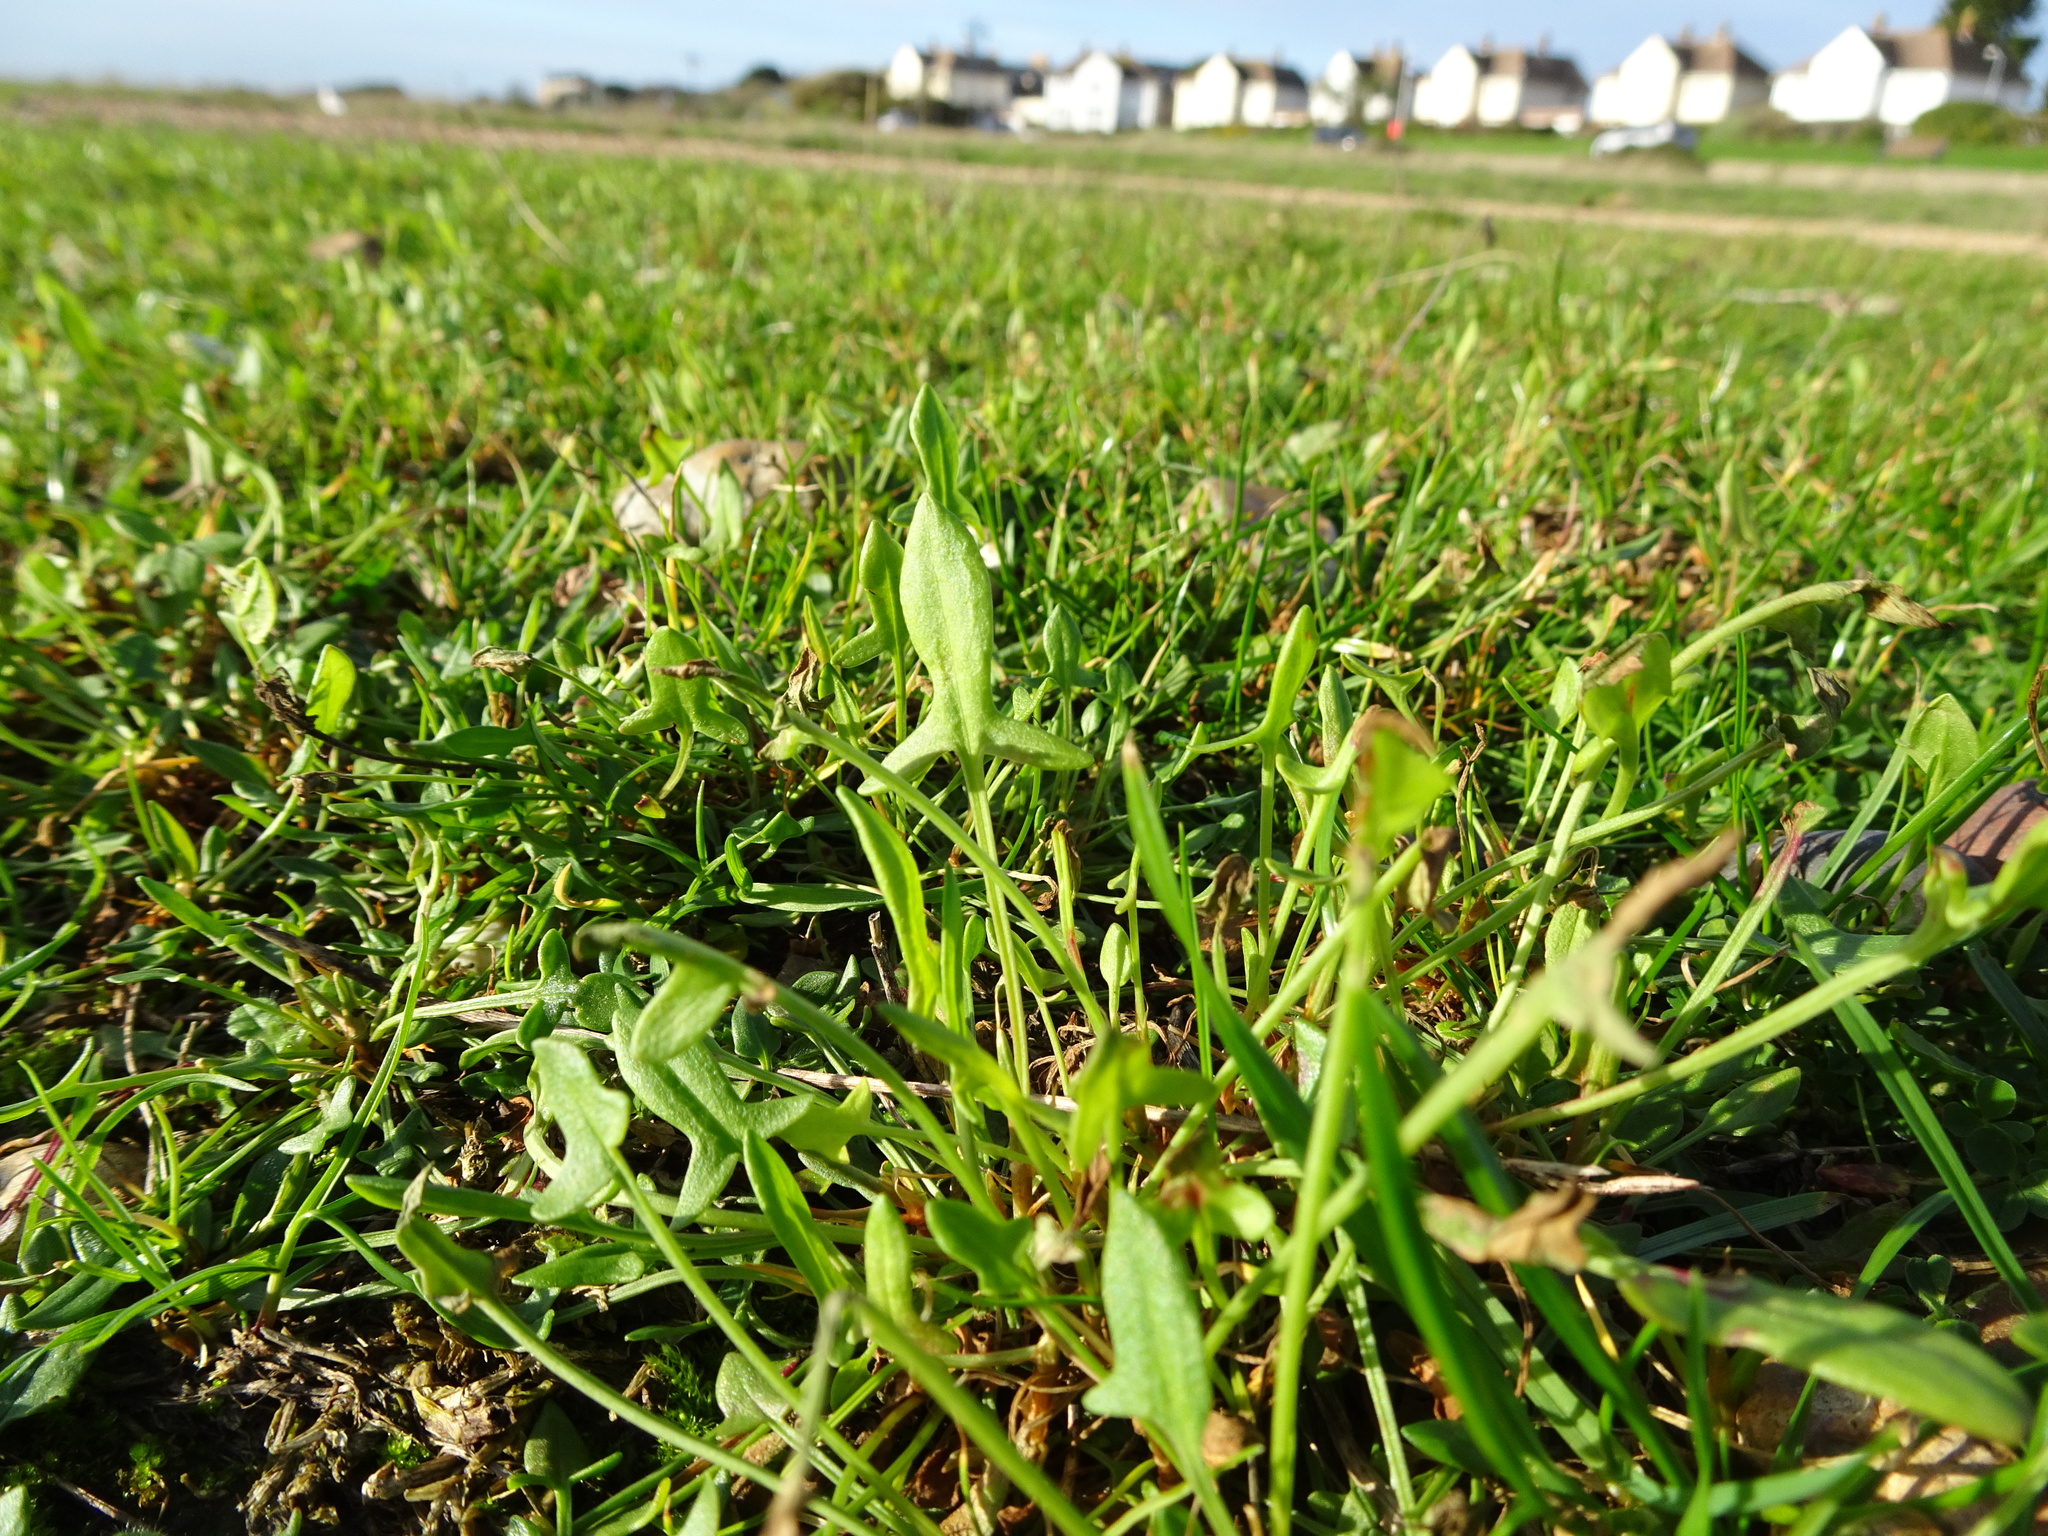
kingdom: Plantae
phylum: Tracheophyta
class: Magnoliopsida
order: Caryophyllales
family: Polygonaceae
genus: Rumex
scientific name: Rumex acetosella
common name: Common sheep sorrel
